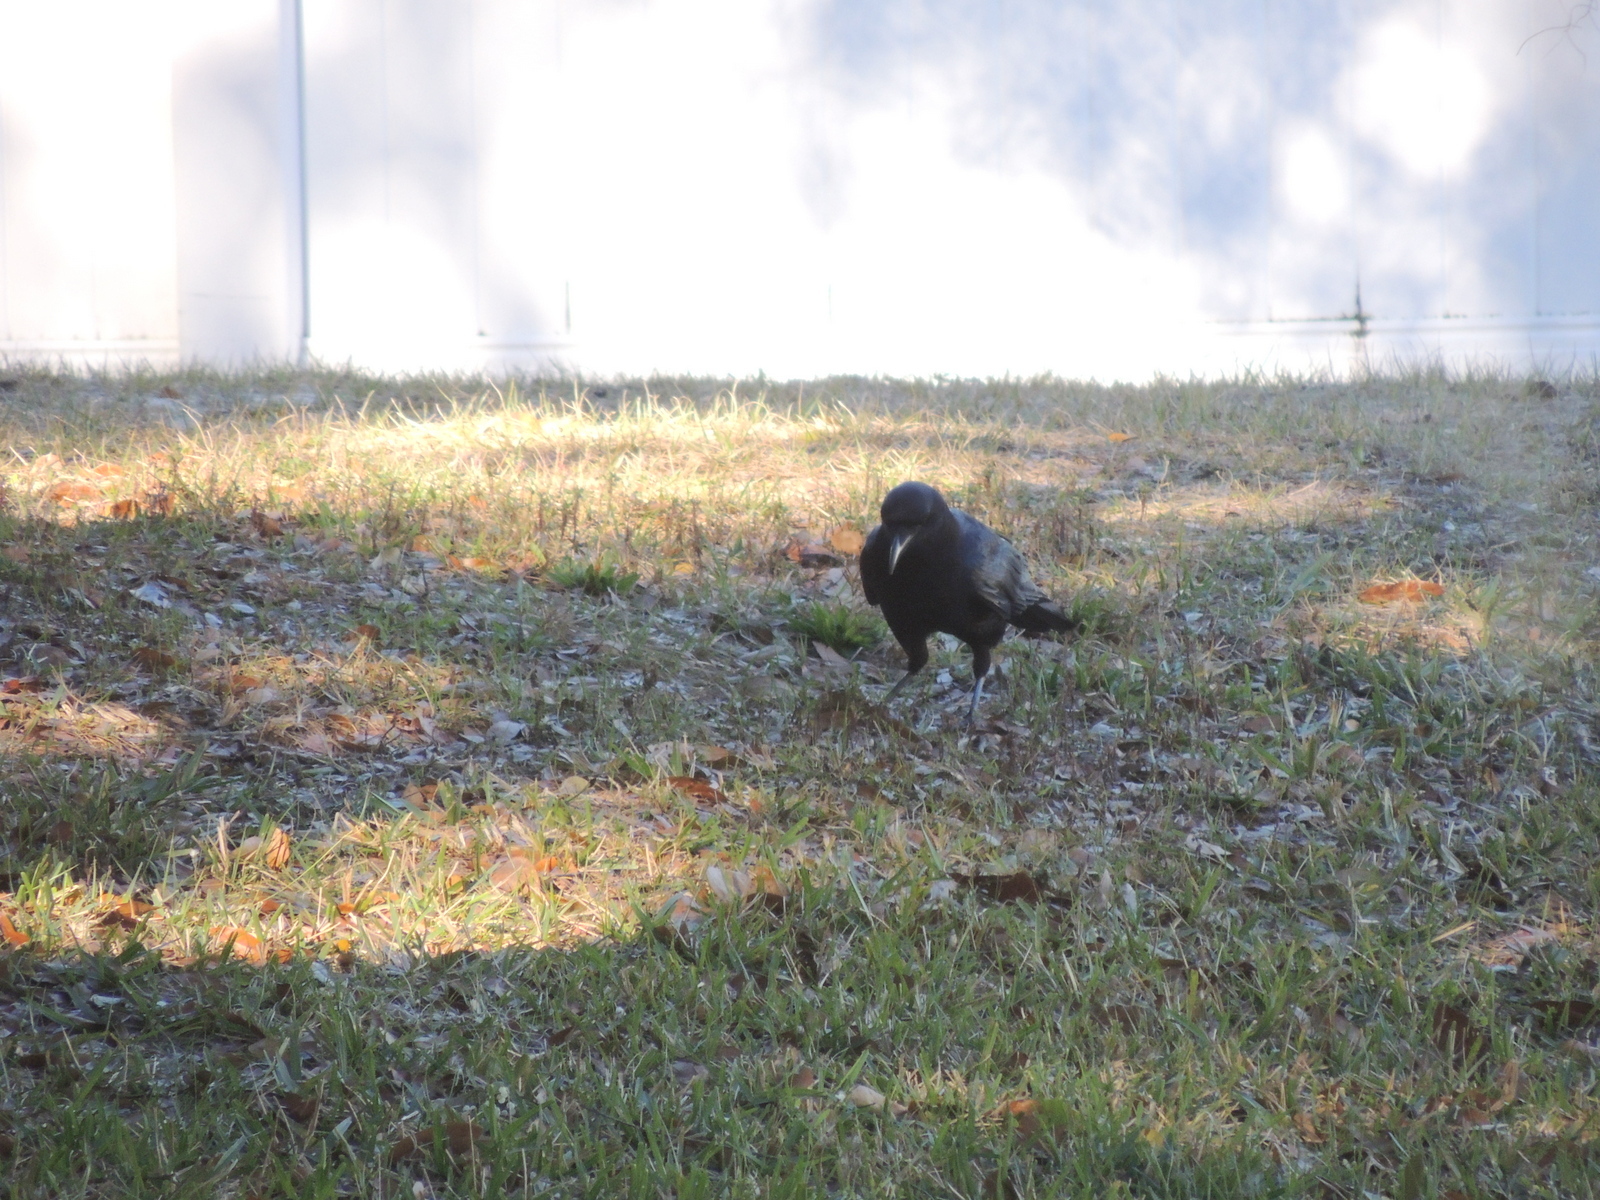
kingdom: Animalia
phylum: Chordata
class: Aves
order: Passeriformes
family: Corvidae
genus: Corvus
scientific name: Corvus
